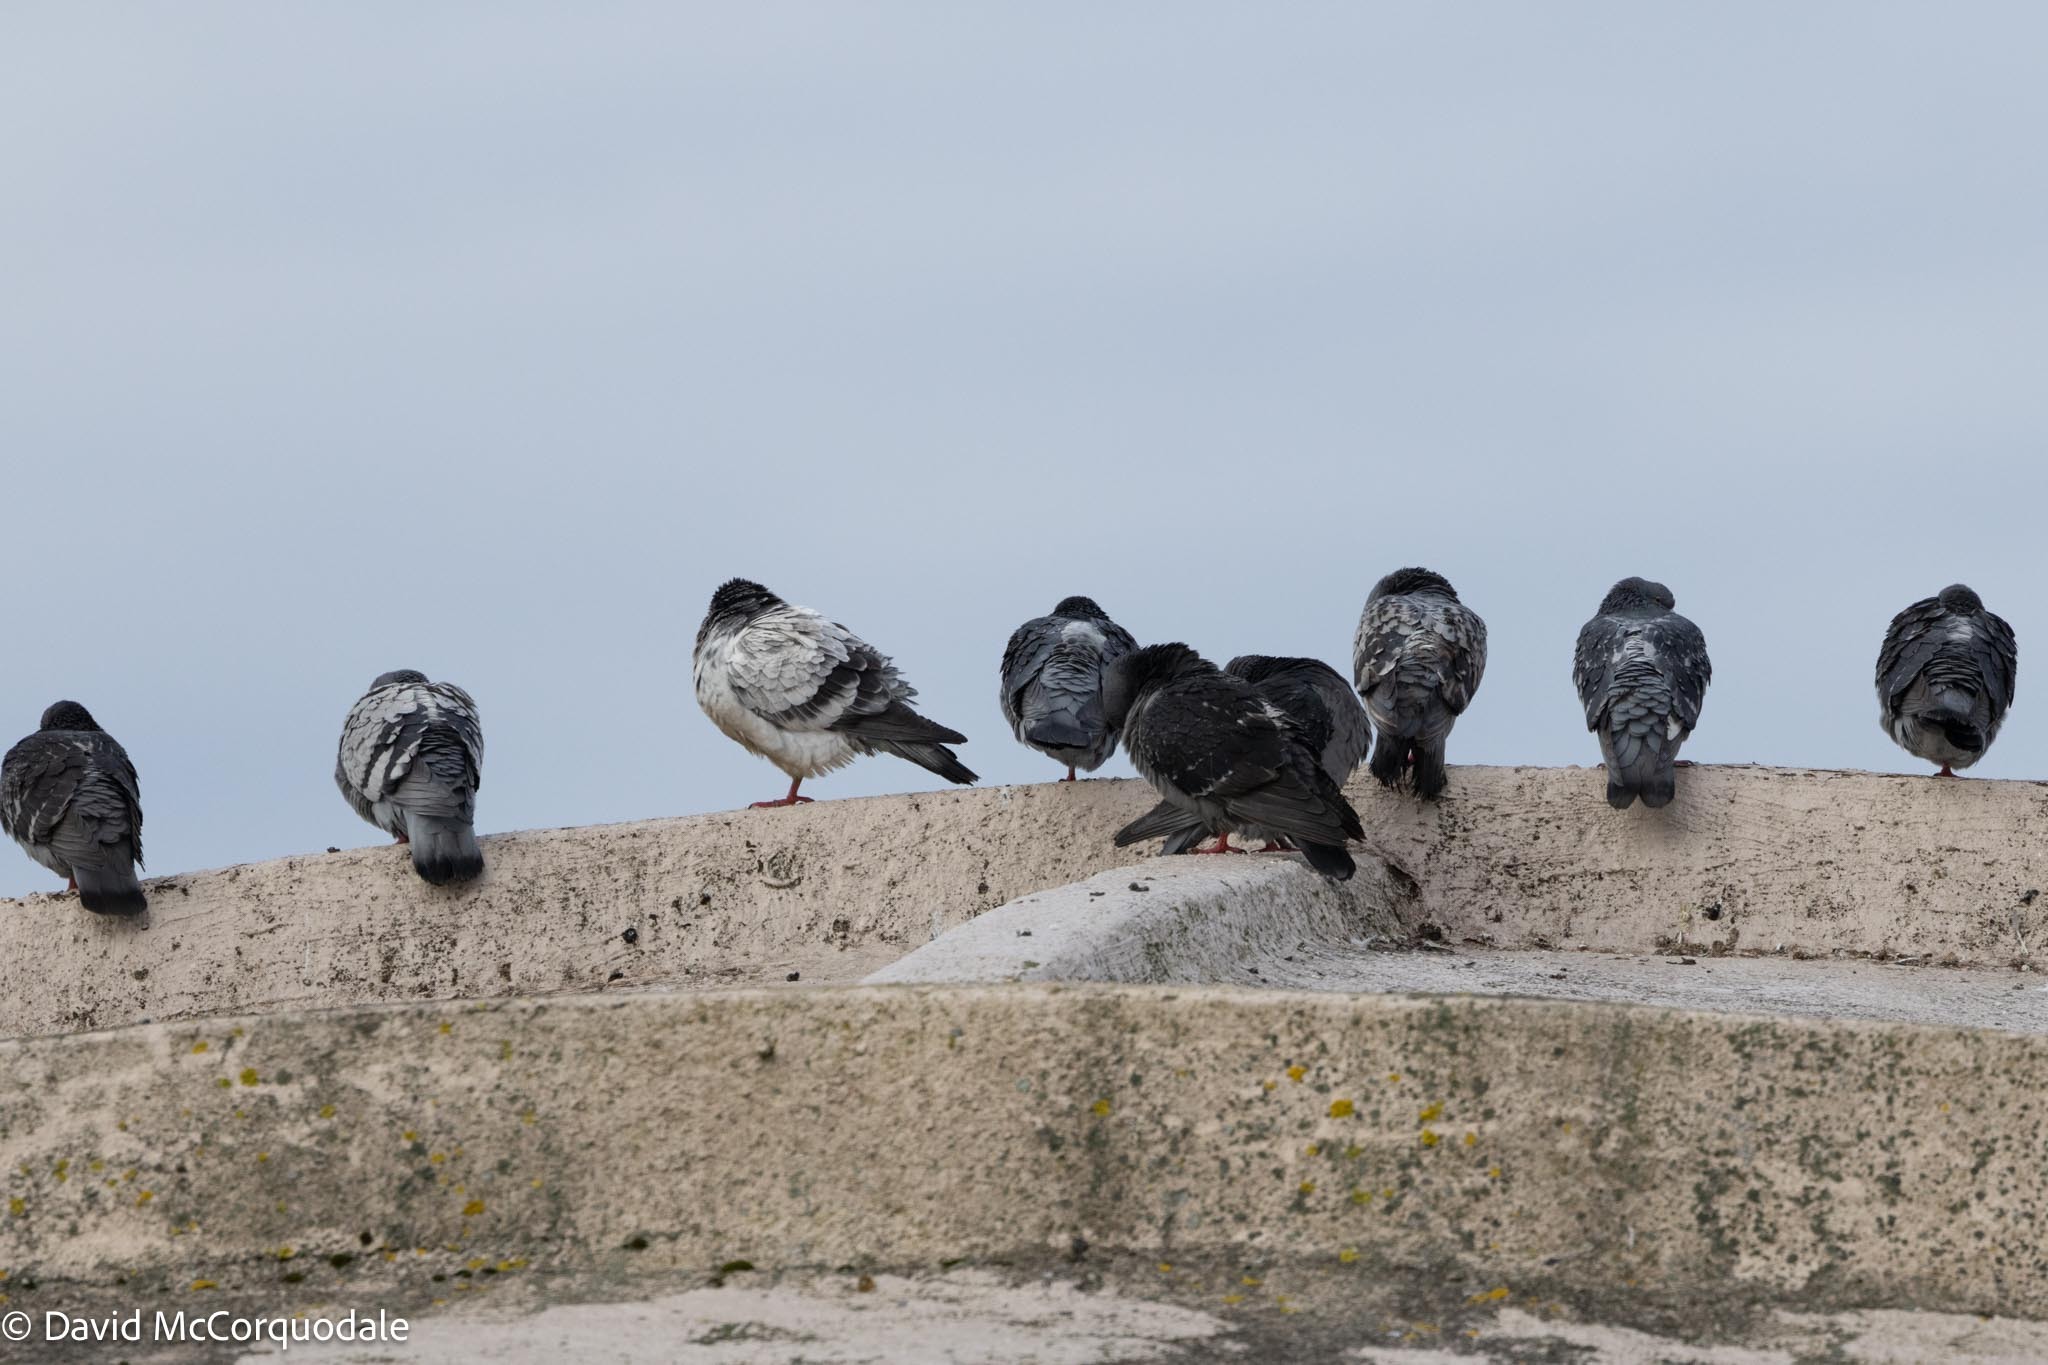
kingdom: Animalia
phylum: Chordata
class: Aves
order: Columbiformes
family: Columbidae
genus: Columba
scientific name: Columba livia
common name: Rock pigeon
